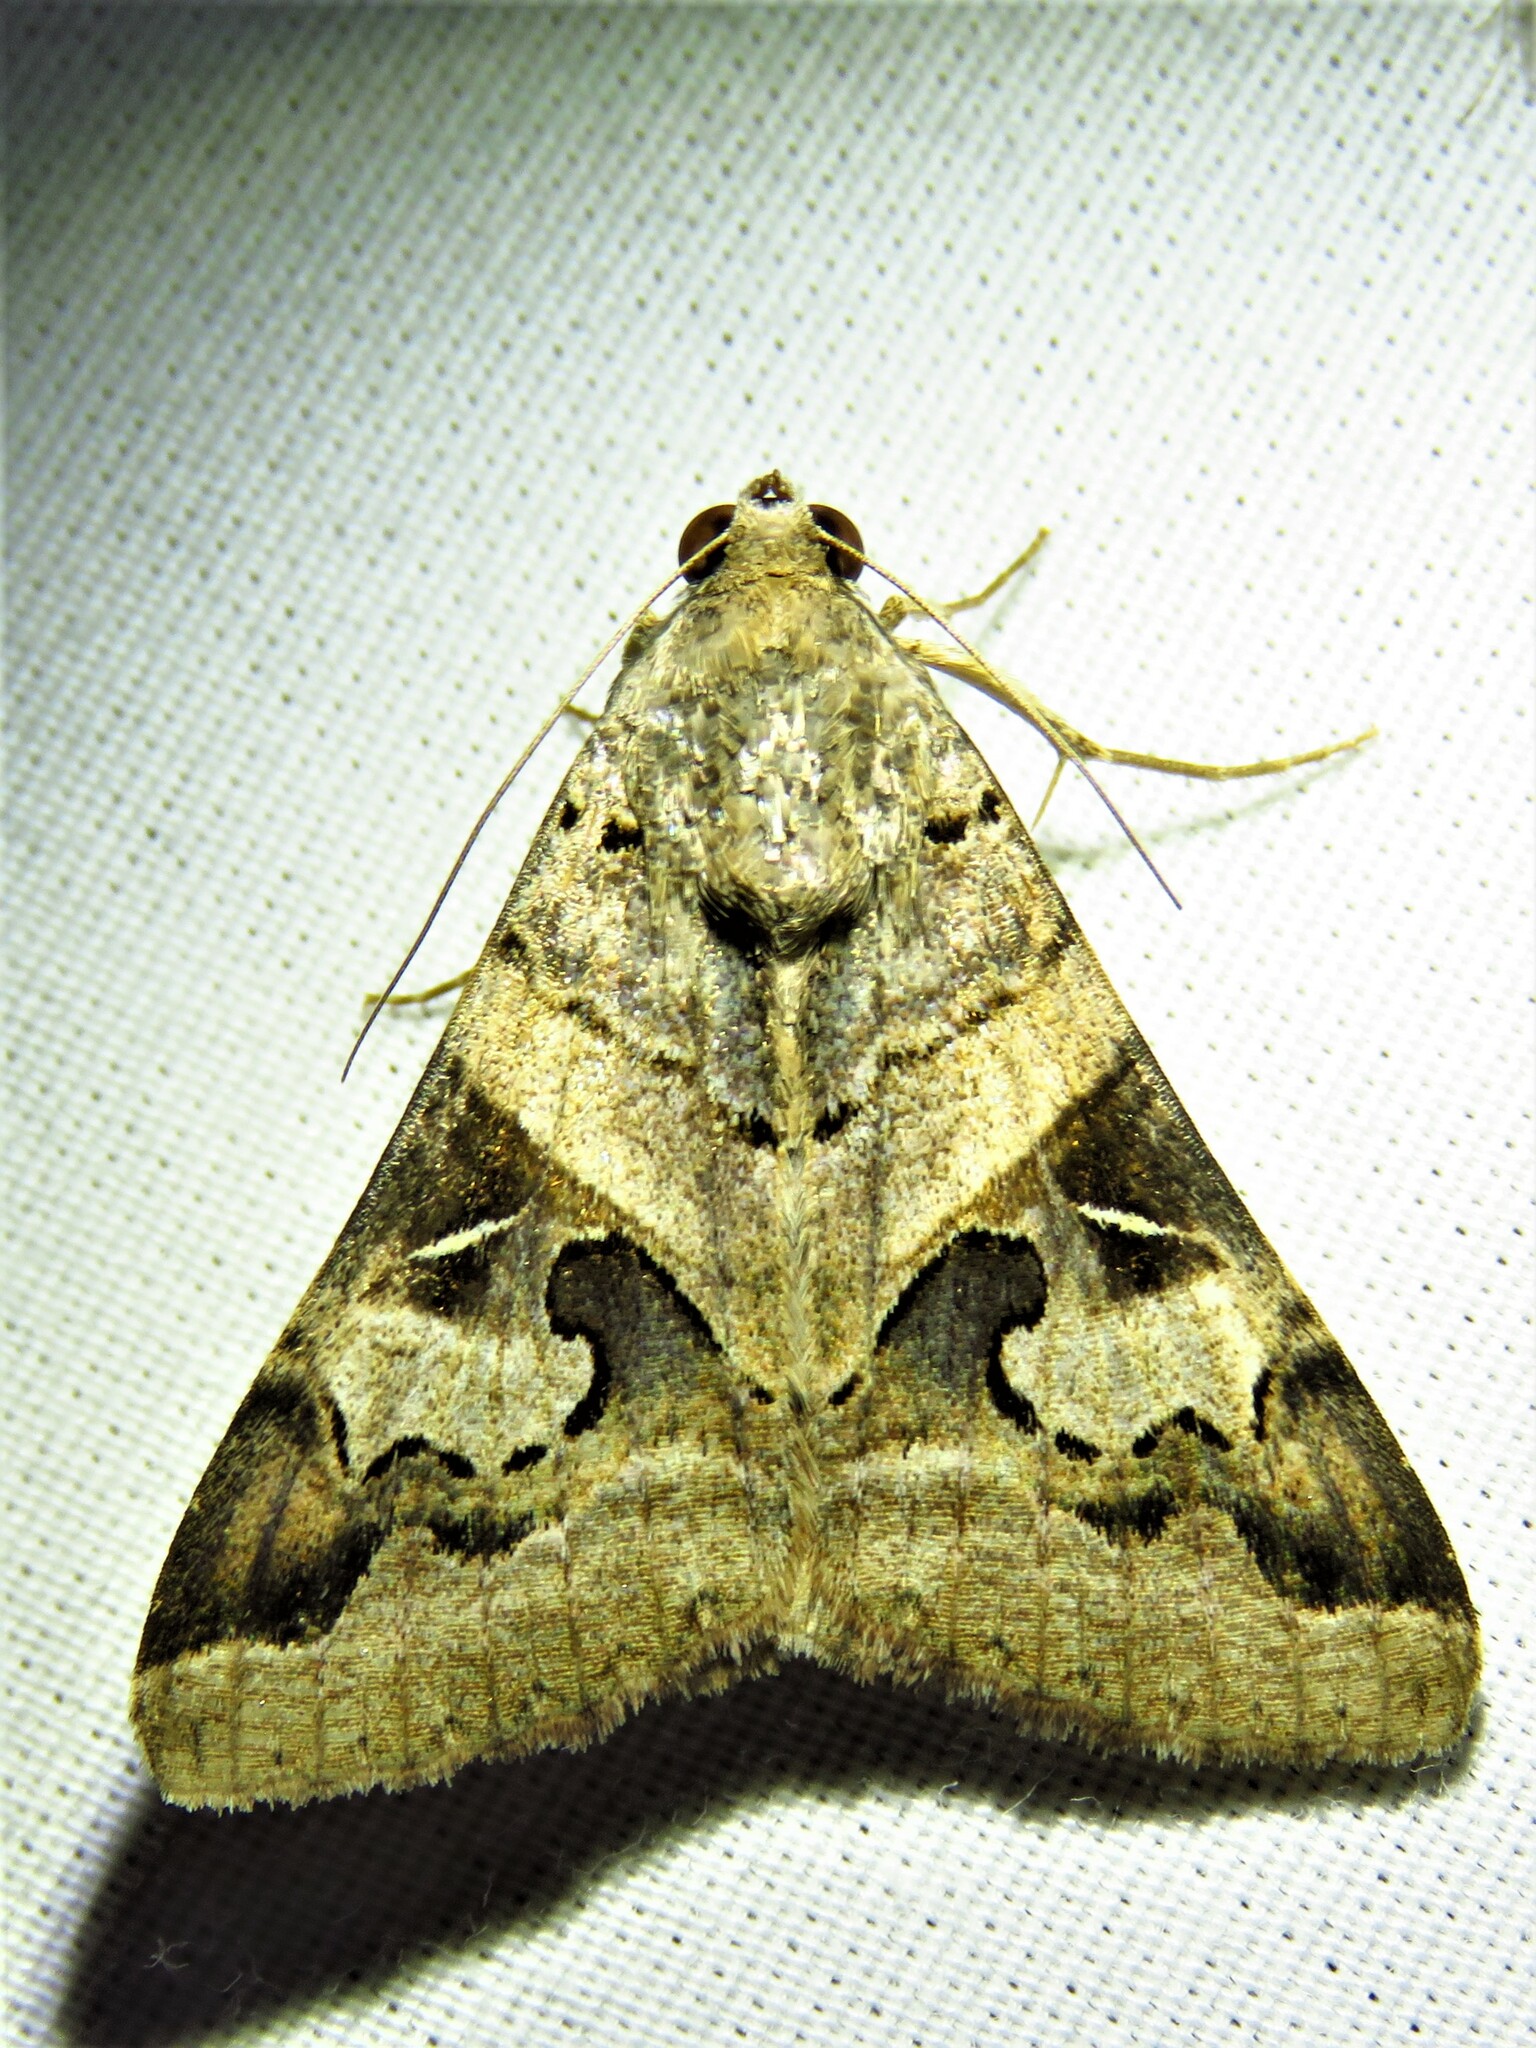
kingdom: Animalia
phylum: Arthropoda
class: Insecta
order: Lepidoptera
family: Erebidae
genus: Melipotis
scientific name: Melipotis indomita
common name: Moth
